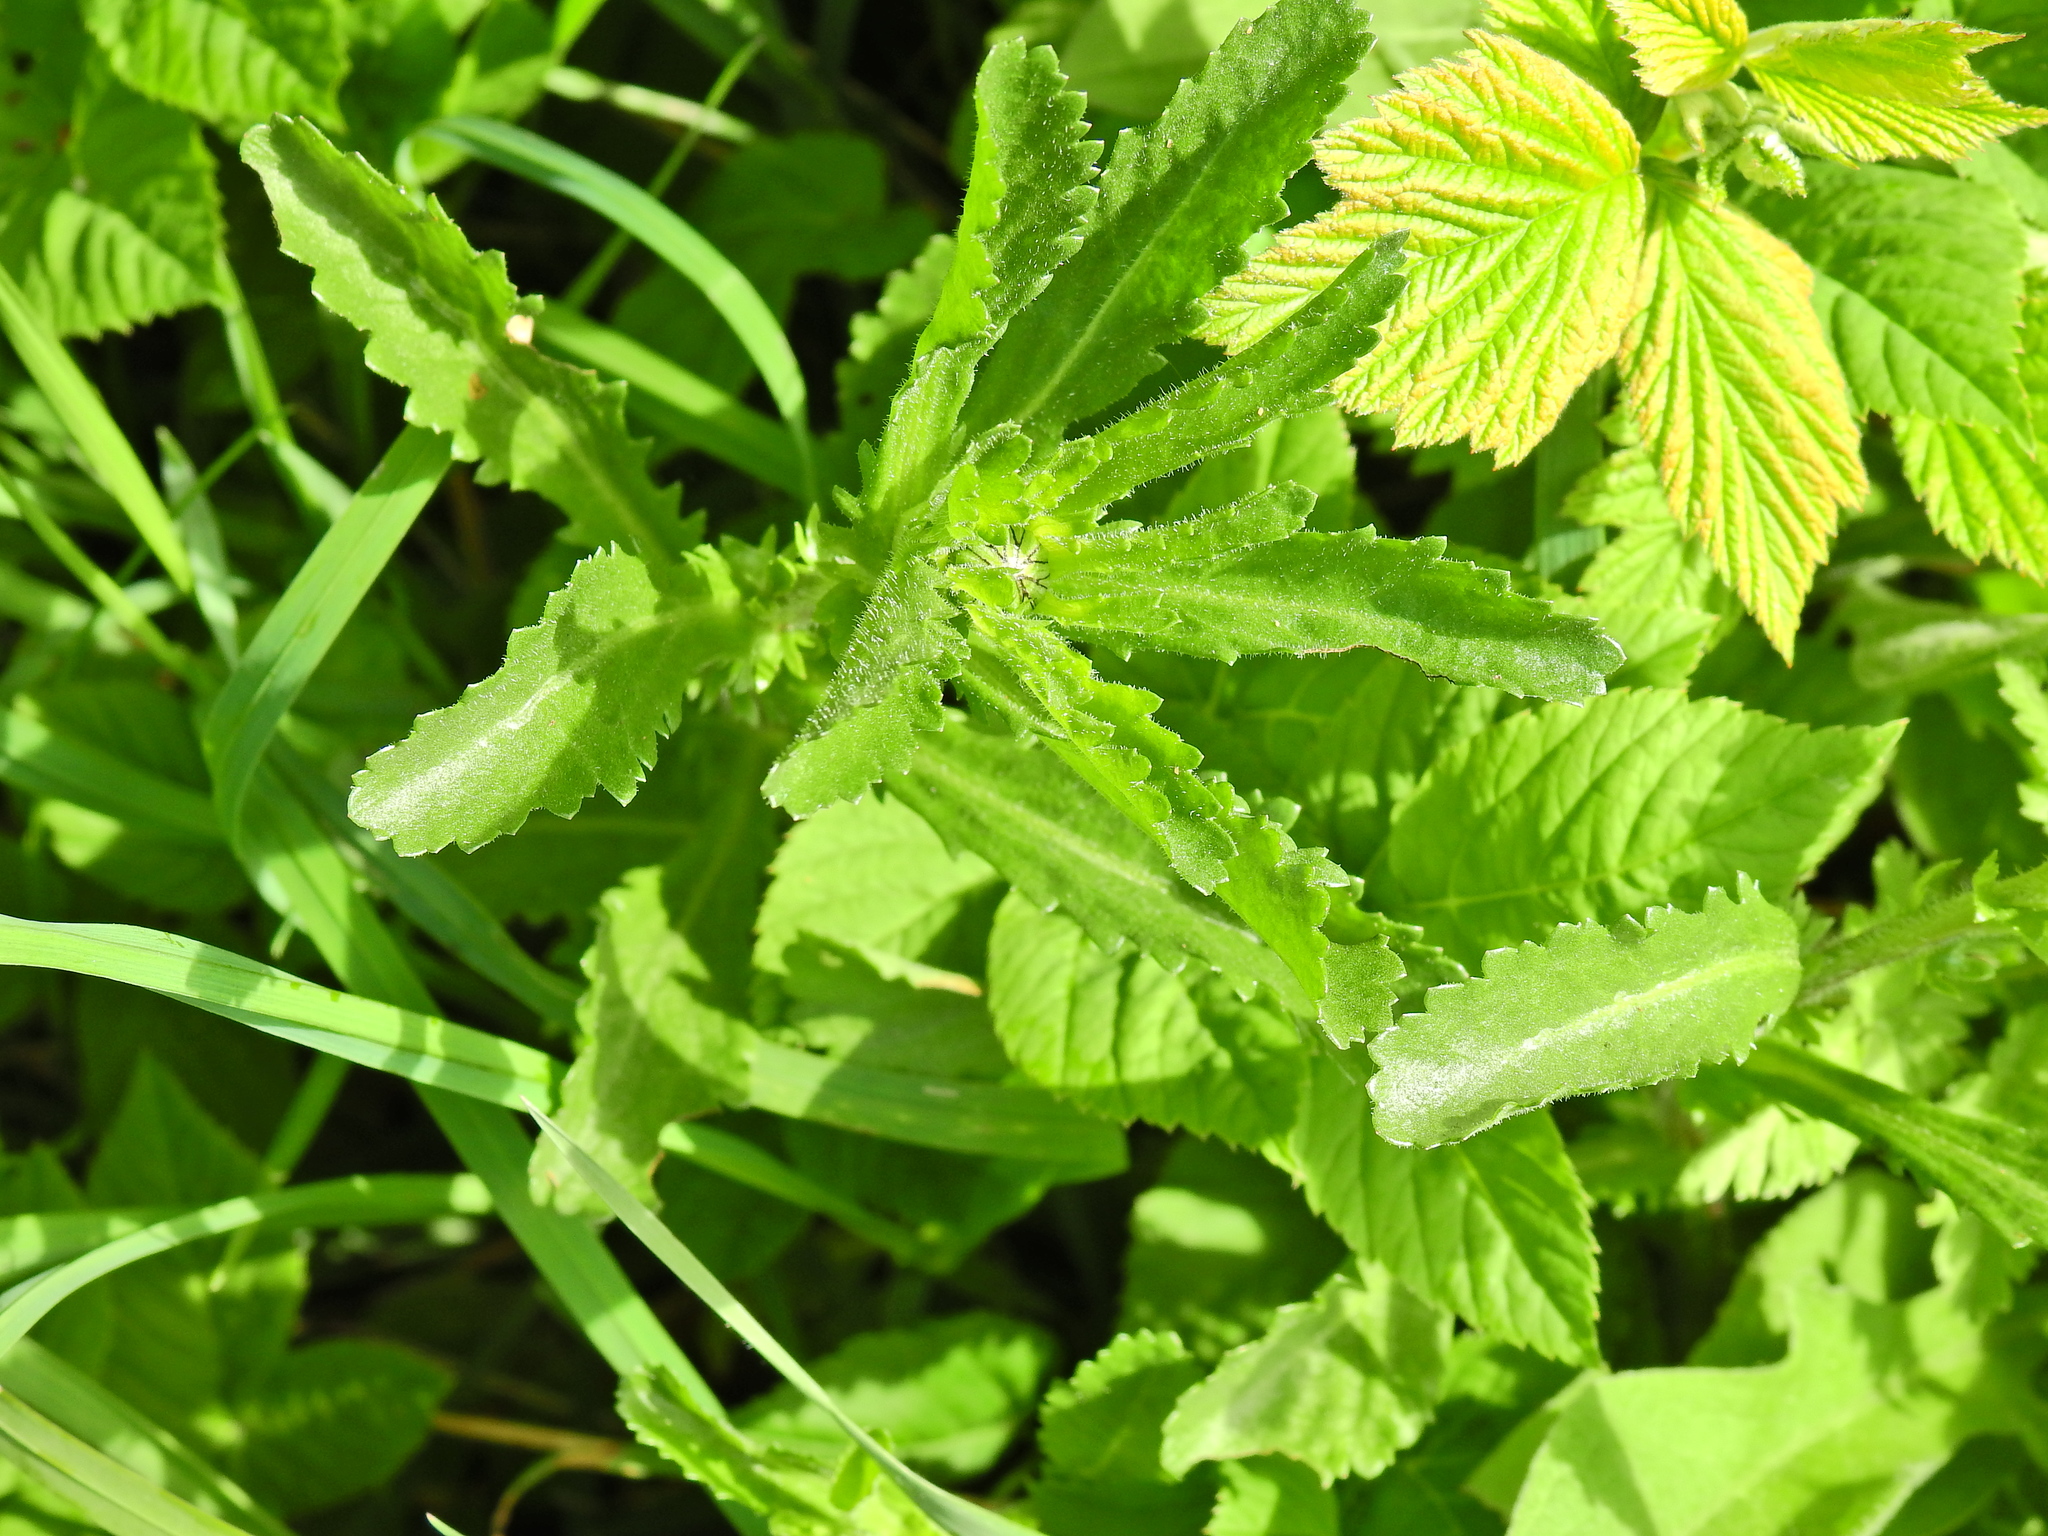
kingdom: Plantae
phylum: Tracheophyta
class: Magnoliopsida
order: Asterales
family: Asteraceae
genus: Leucanthemum
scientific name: Leucanthemum vulgare
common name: Oxeye daisy
